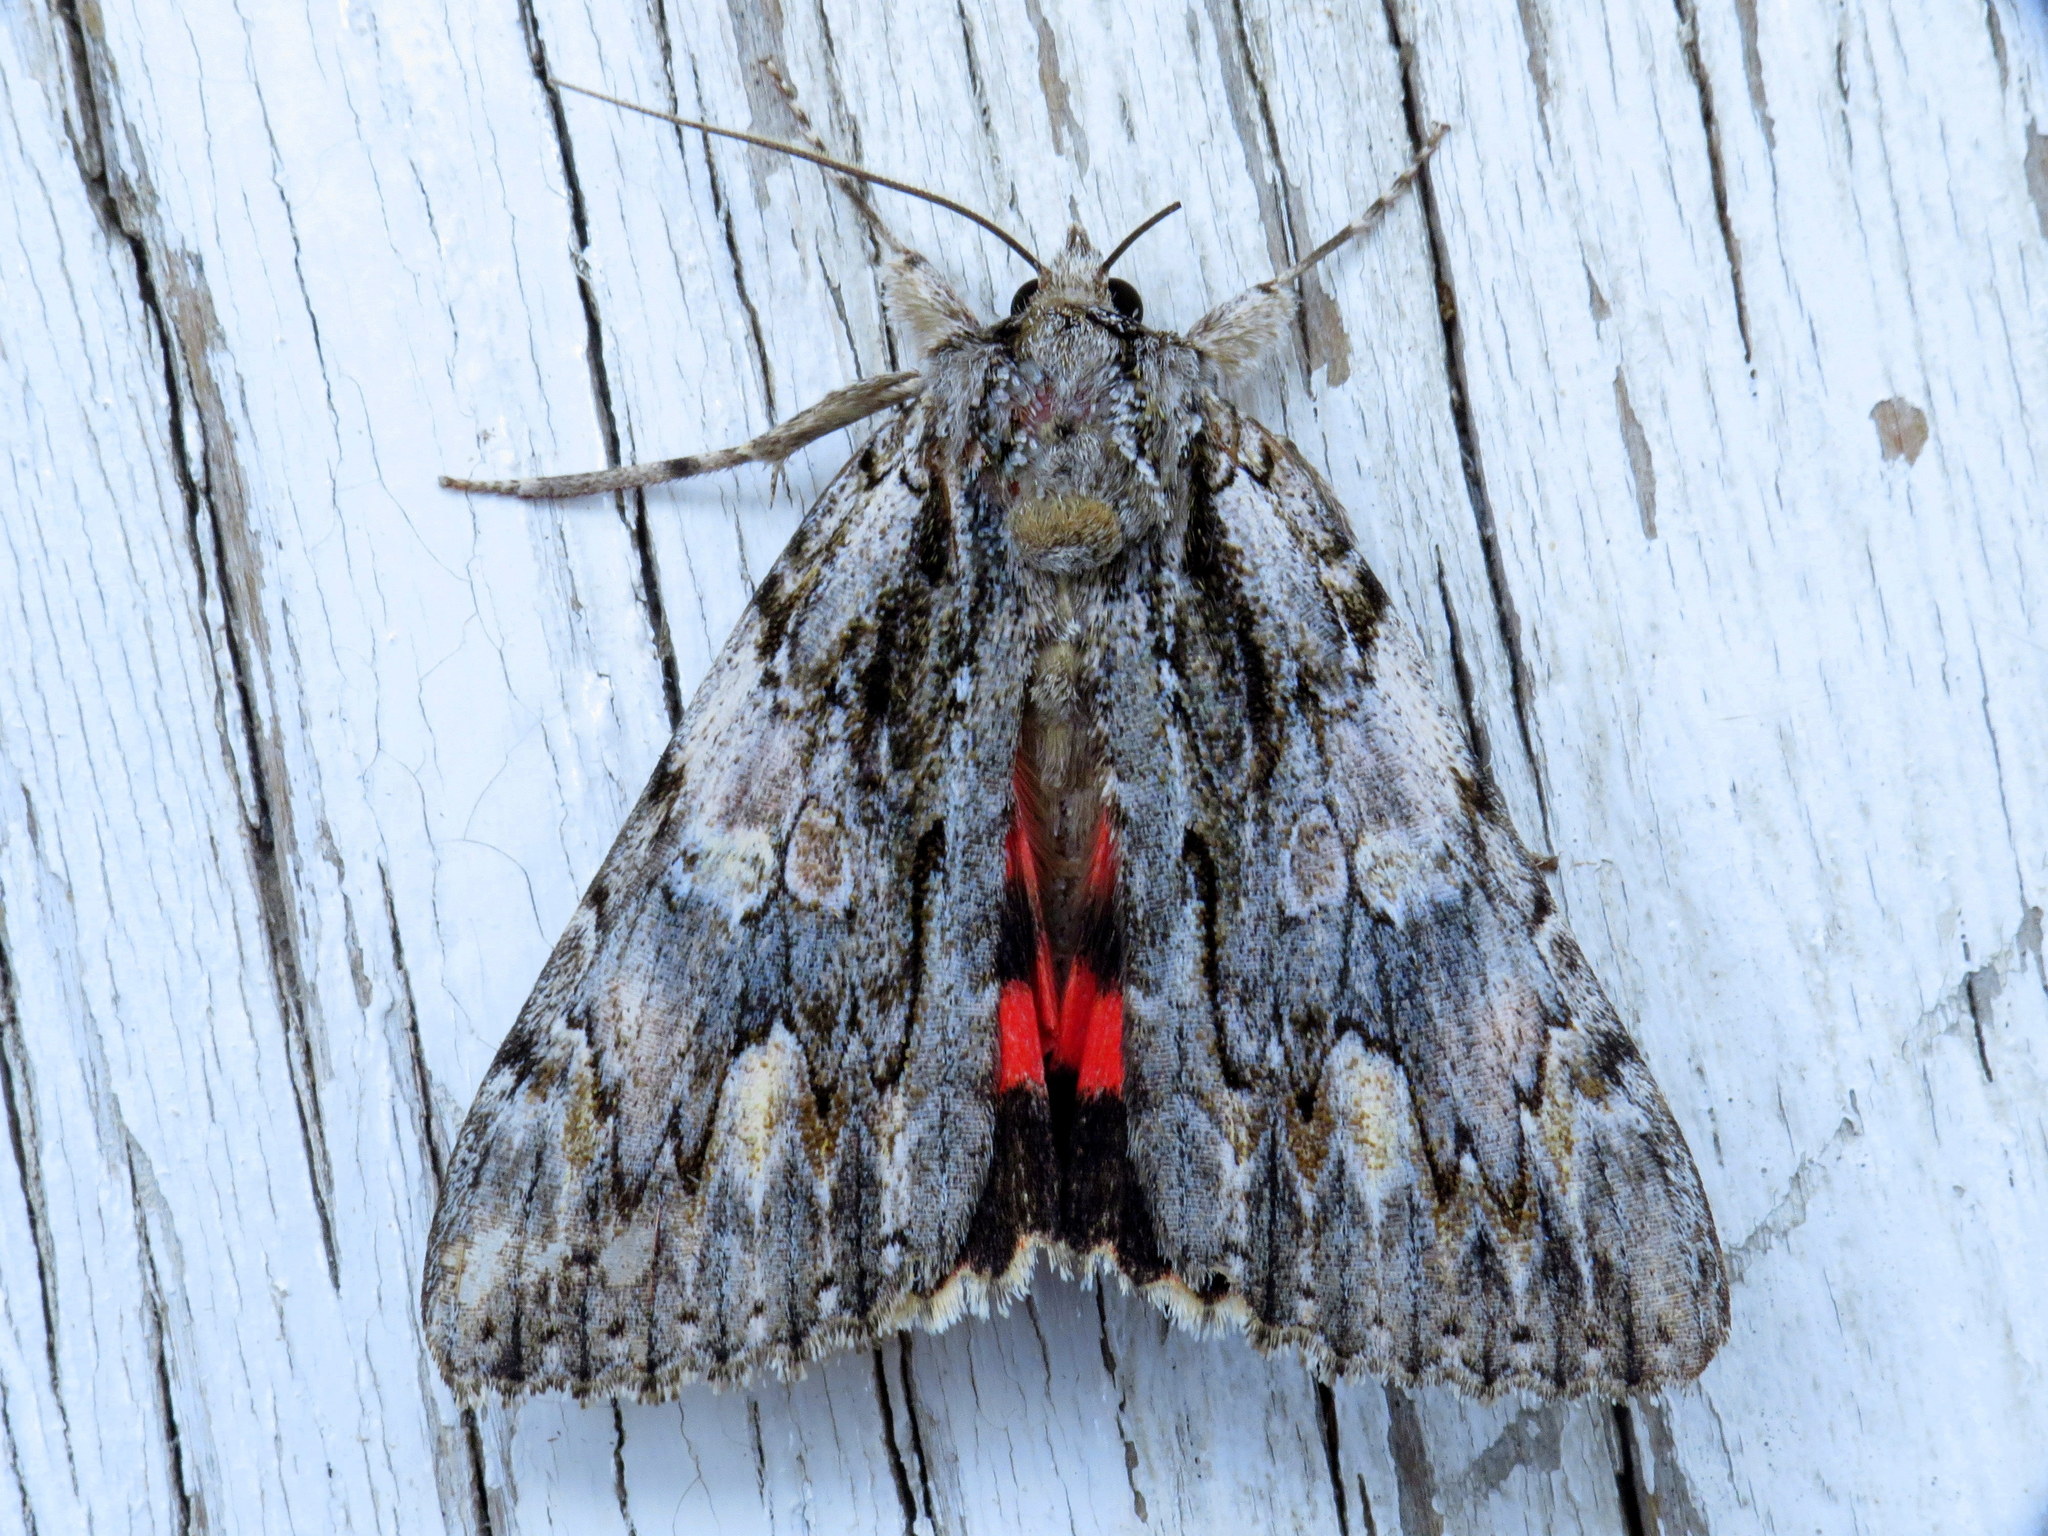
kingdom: Animalia
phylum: Arthropoda
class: Insecta
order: Lepidoptera
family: Erebidae
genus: Catocala
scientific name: Catocala coccinata
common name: Scarlet underwing
